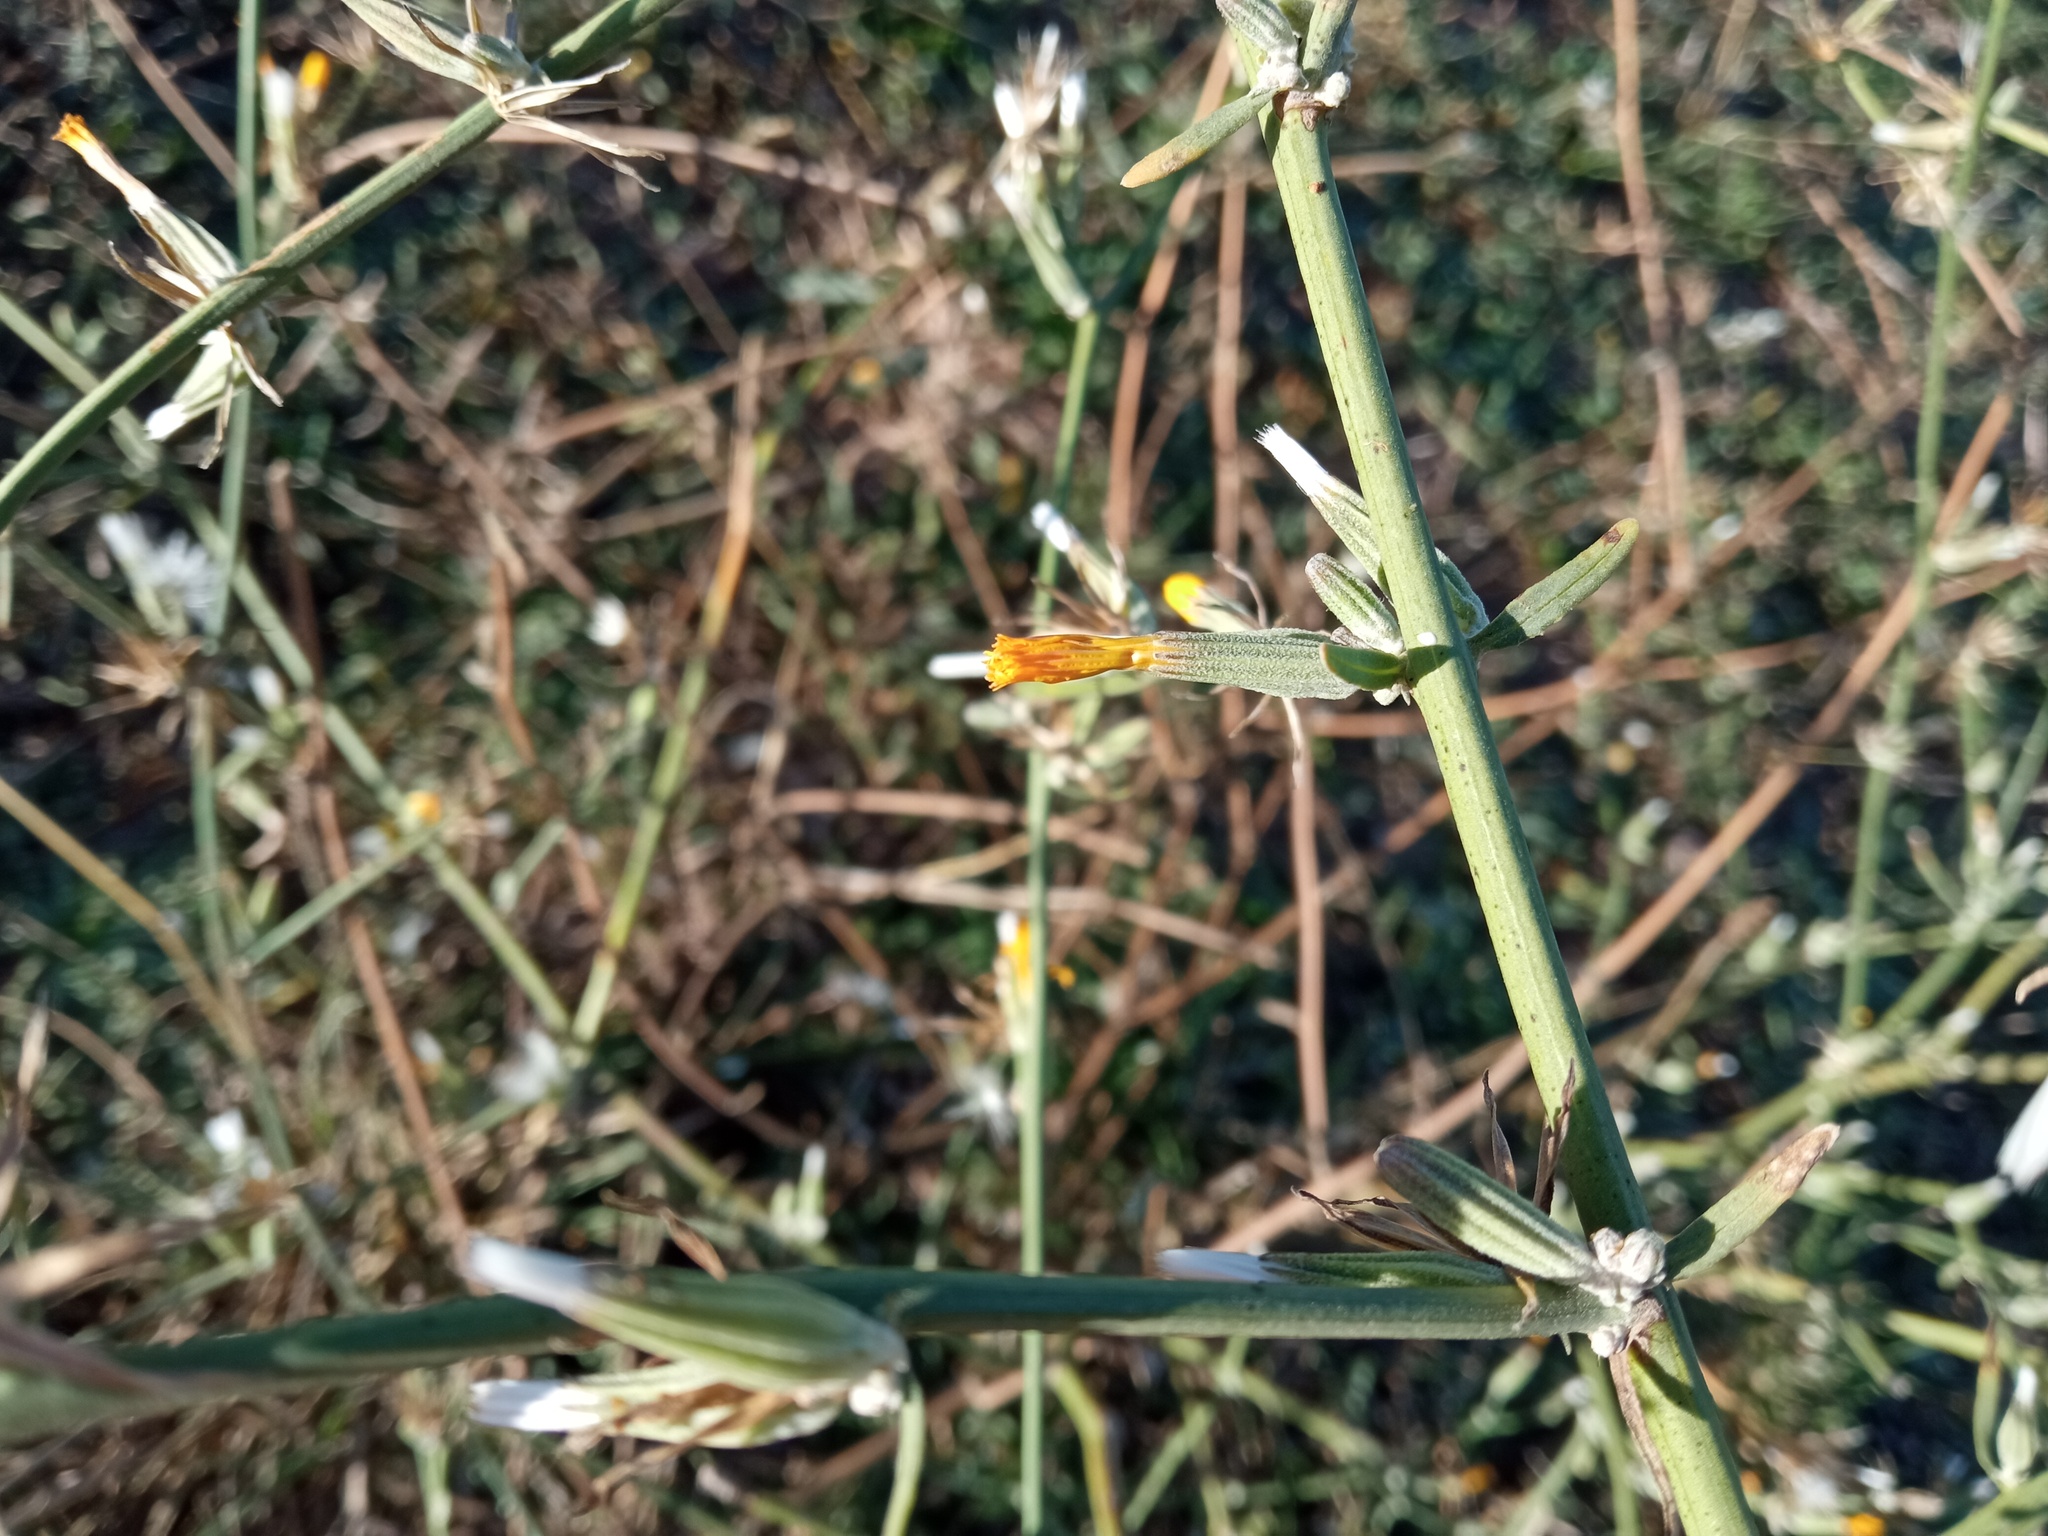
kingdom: Plantae
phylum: Tracheophyta
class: Magnoliopsida
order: Asterales
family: Asteraceae
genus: Chondrilla
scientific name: Chondrilla juncea
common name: Skeleton weed
